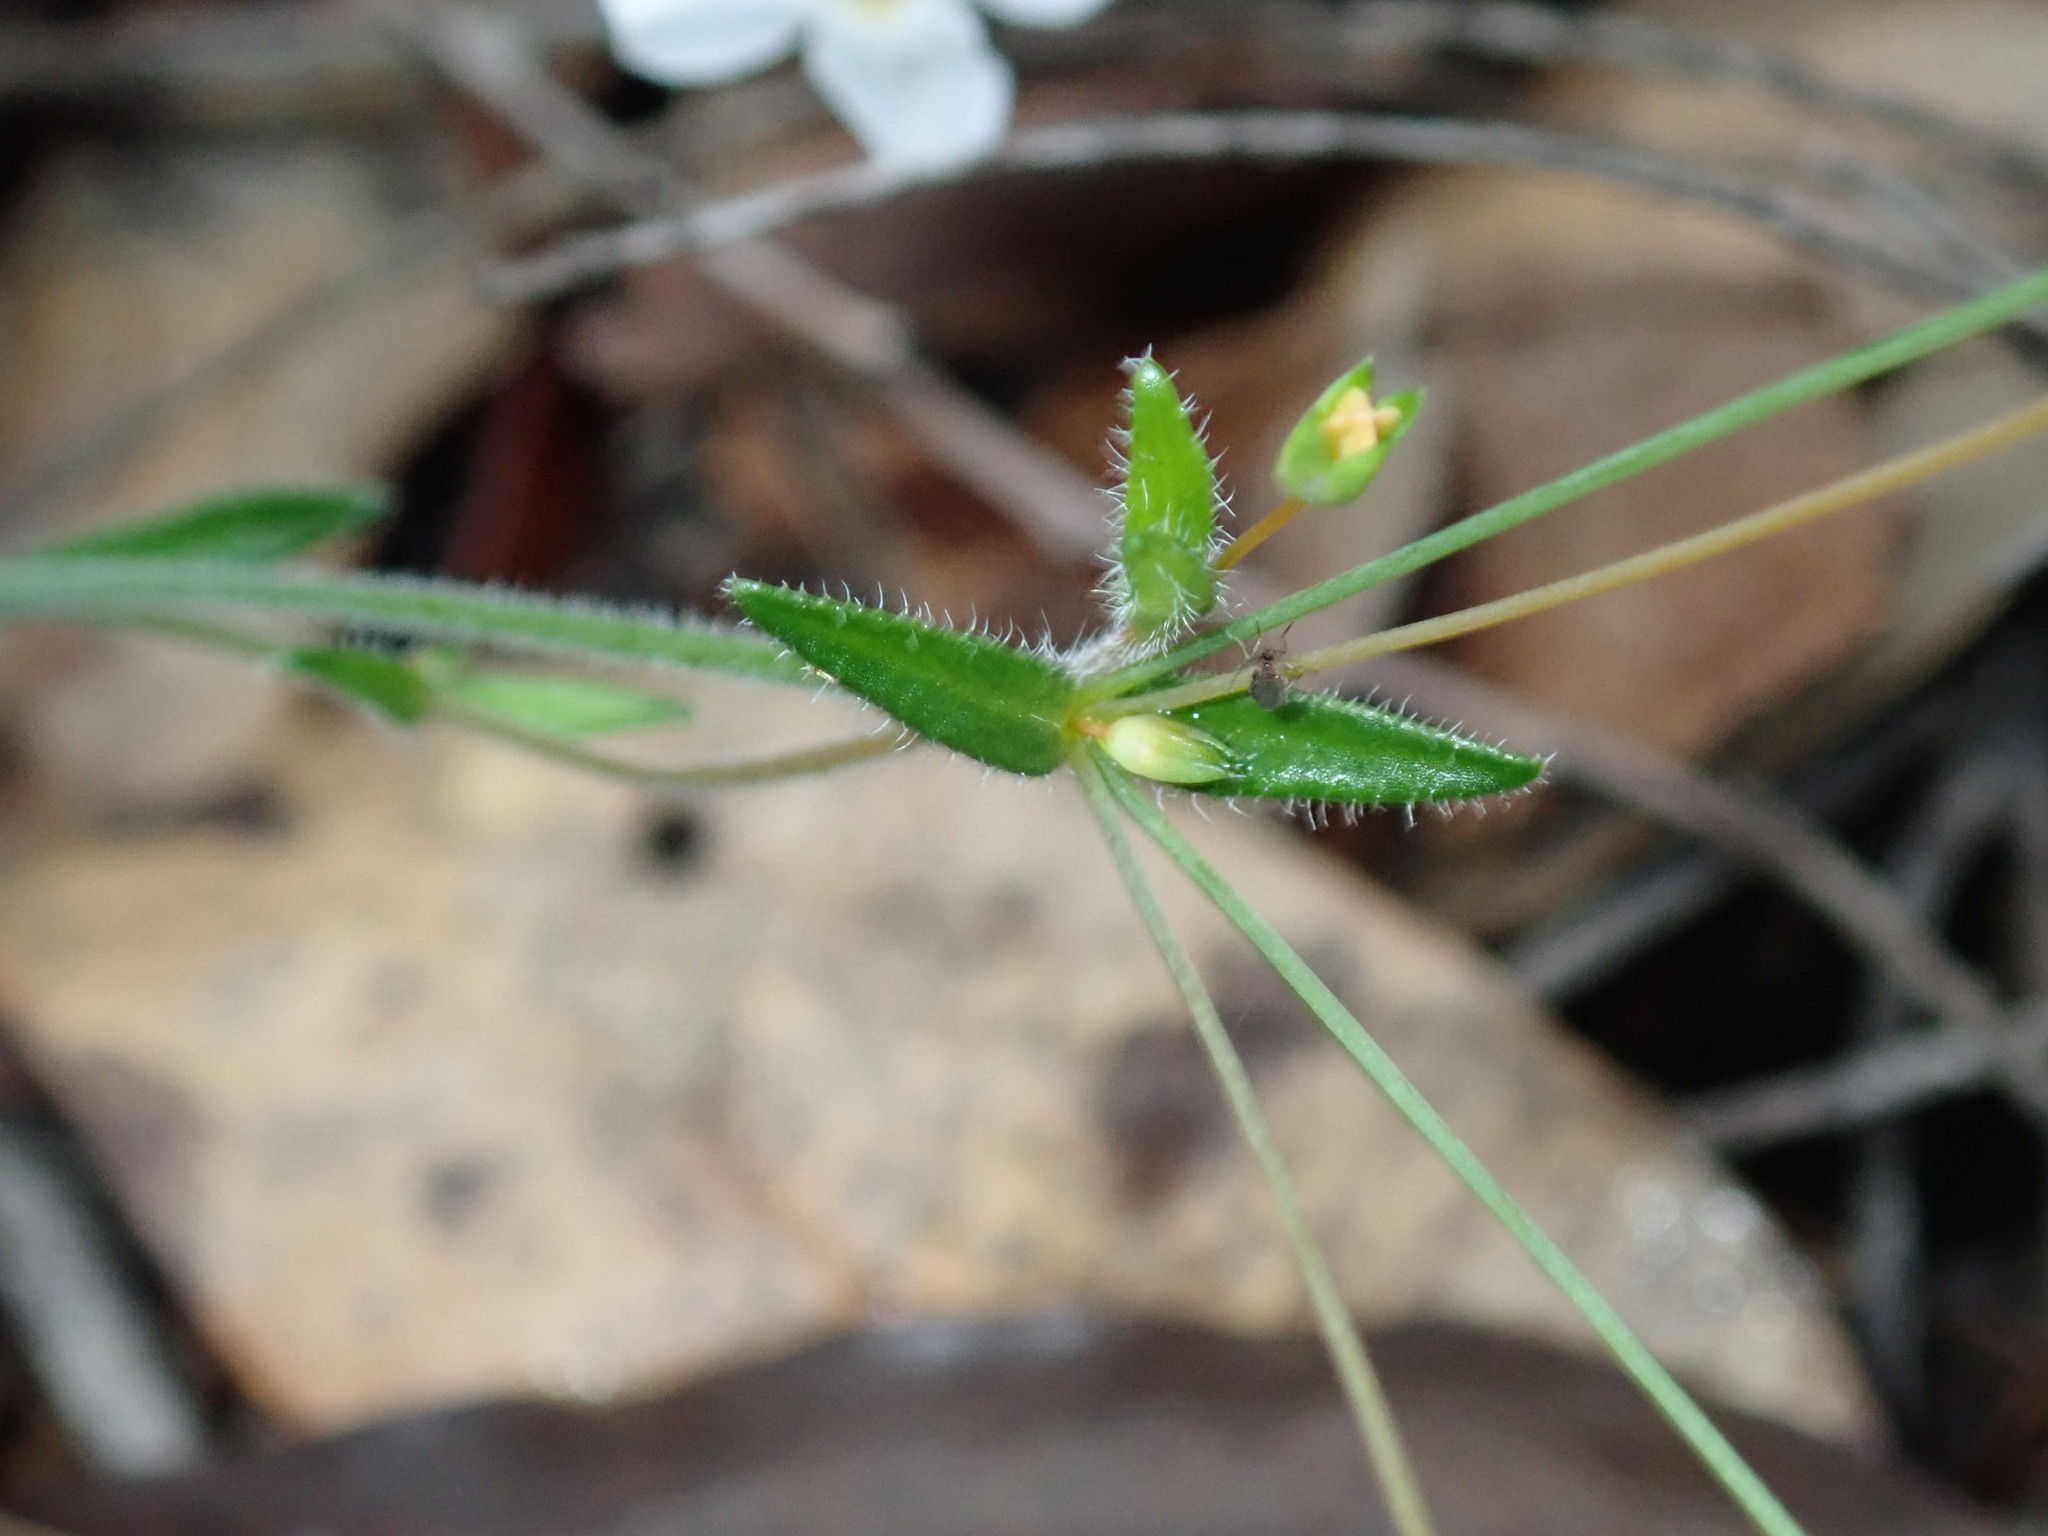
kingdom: Plantae
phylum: Tracheophyta
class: Magnoliopsida
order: Gentianales
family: Loganiaceae
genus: Mitrasacme
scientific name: Mitrasacme polymorpha
